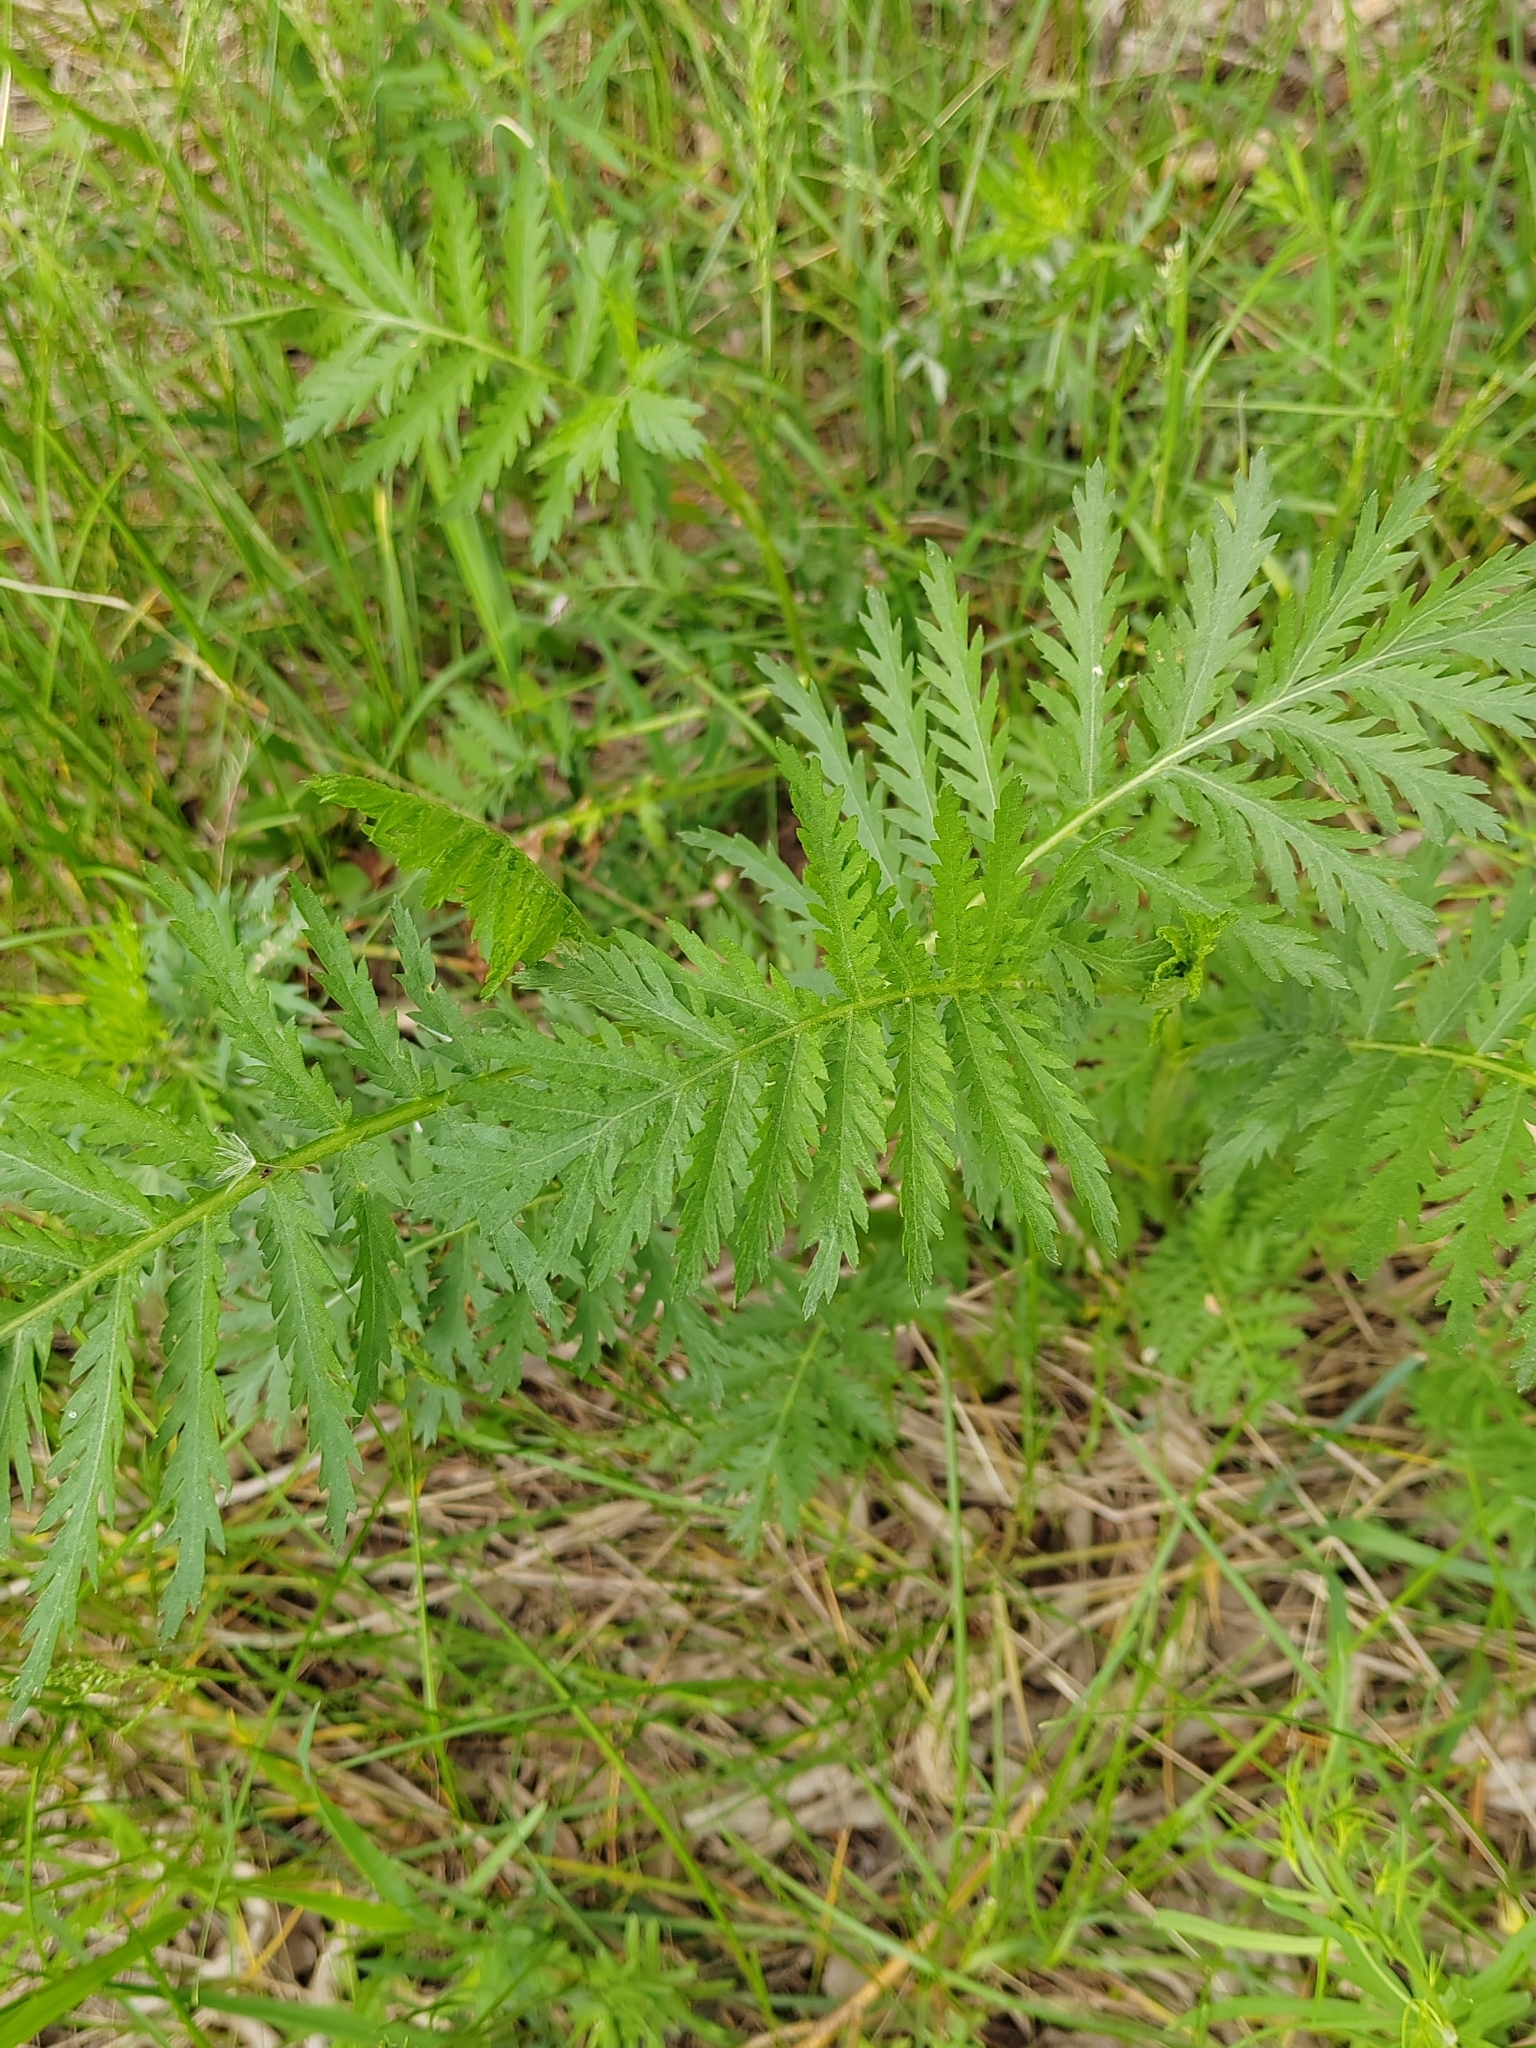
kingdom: Plantae
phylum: Tracheophyta
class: Magnoliopsida
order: Asterales
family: Asteraceae
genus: Tanacetum
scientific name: Tanacetum vulgare
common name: Common tansy
